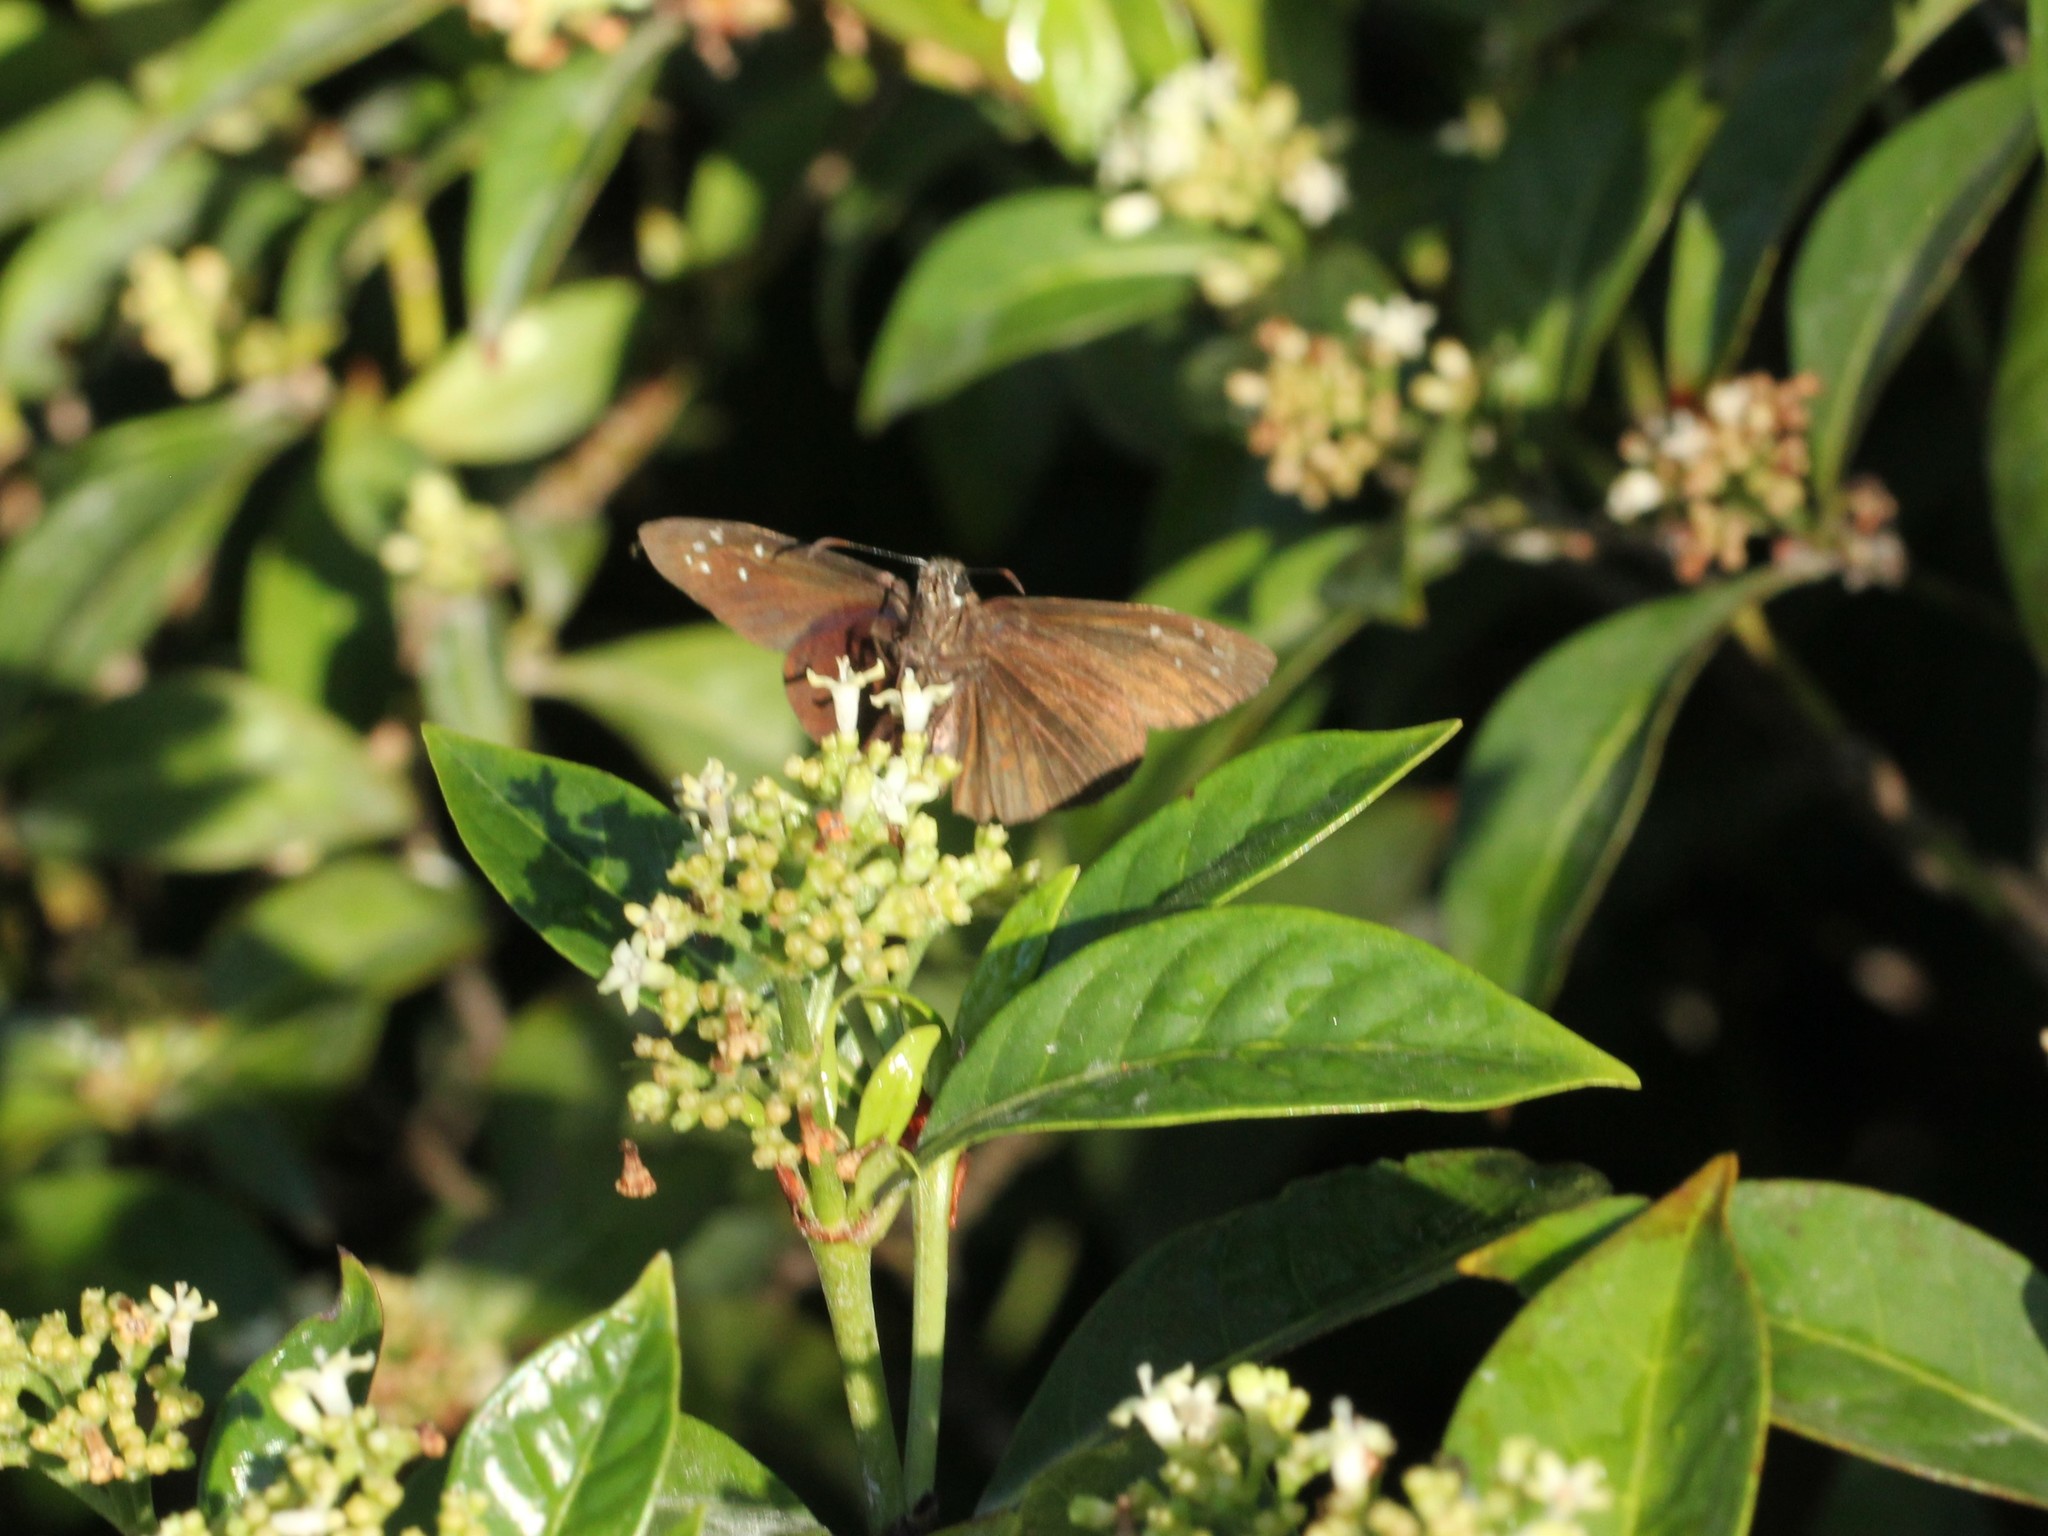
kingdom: Animalia
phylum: Arthropoda
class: Insecta
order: Lepidoptera
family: Hesperiidae
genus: Ephyriades
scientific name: Ephyriades brunnea
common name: Florida duskywing
